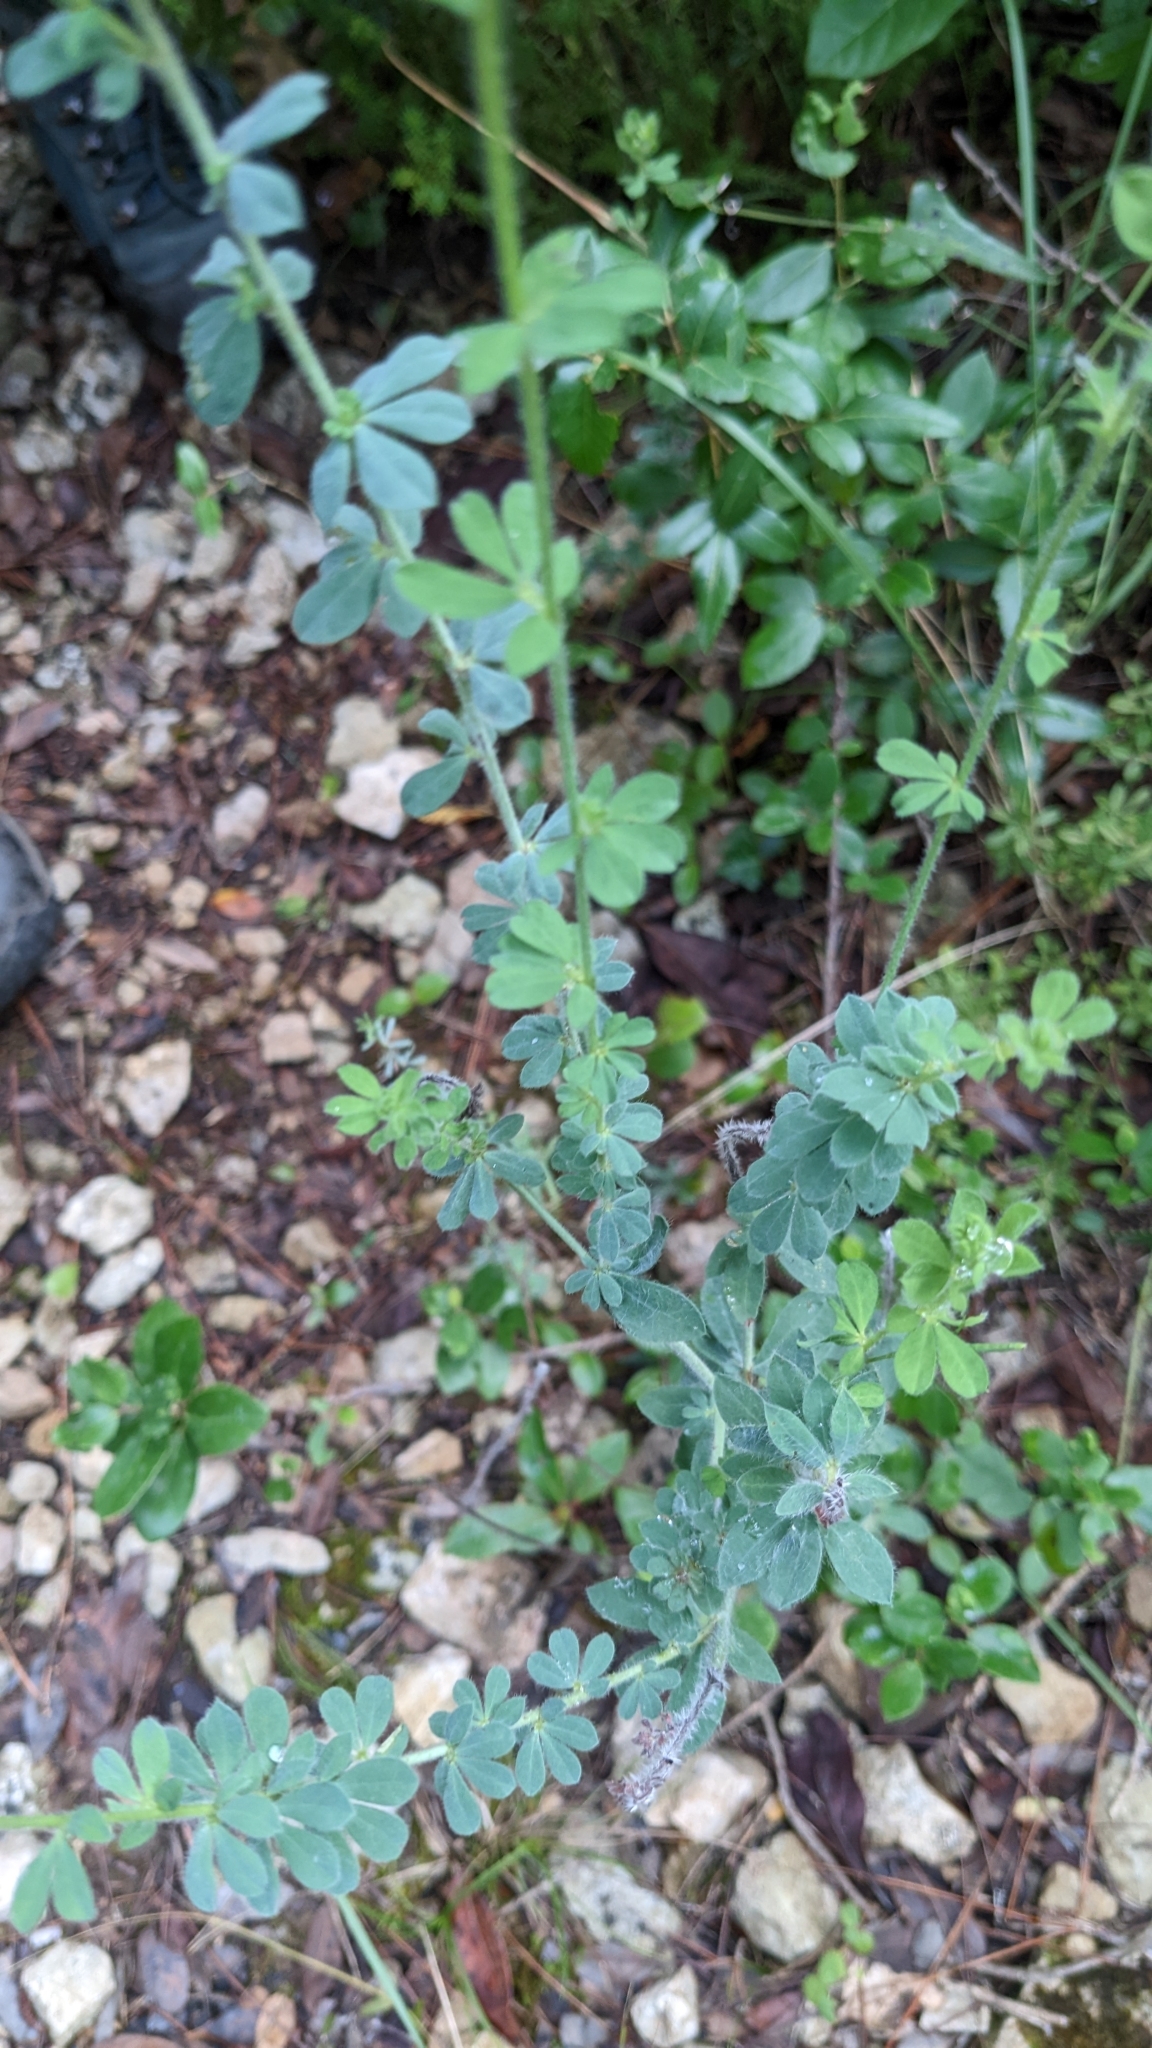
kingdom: Plantae
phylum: Tracheophyta
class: Magnoliopsida
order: Fabales
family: Fabaceae
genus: Lotus
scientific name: Lotus hirsutus
